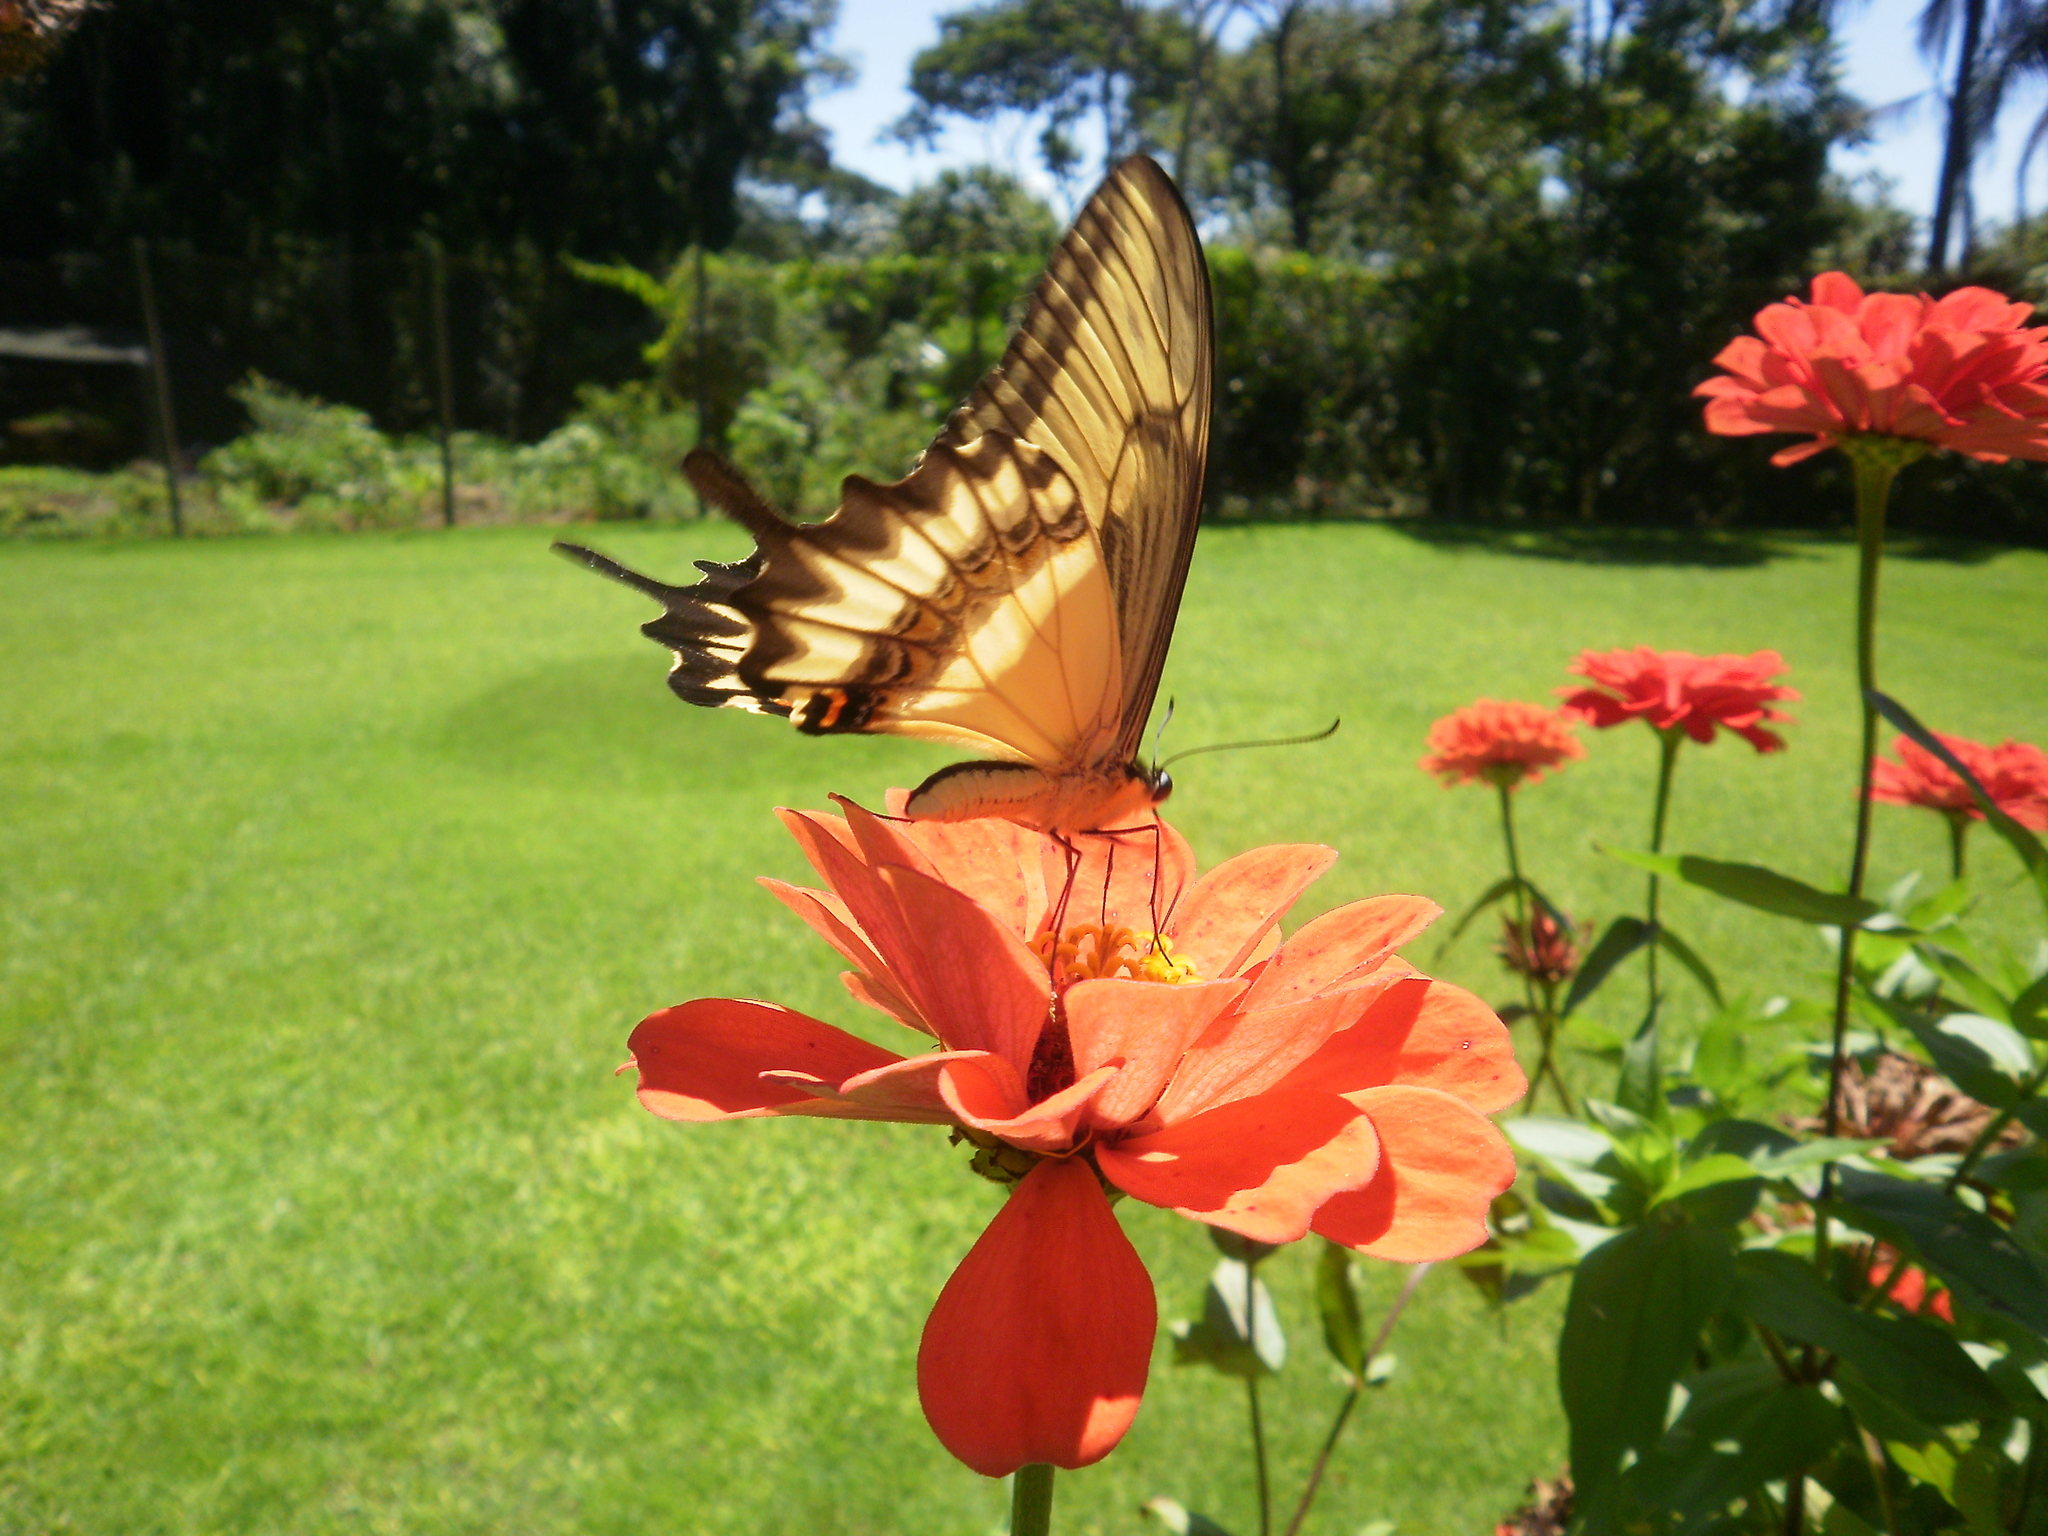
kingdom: Animalia
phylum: Arthropoda
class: Insecta
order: Lepidoptera
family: Papilionidae
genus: Papilio
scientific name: Papilio astyalus
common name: Astyalus swallowtail
